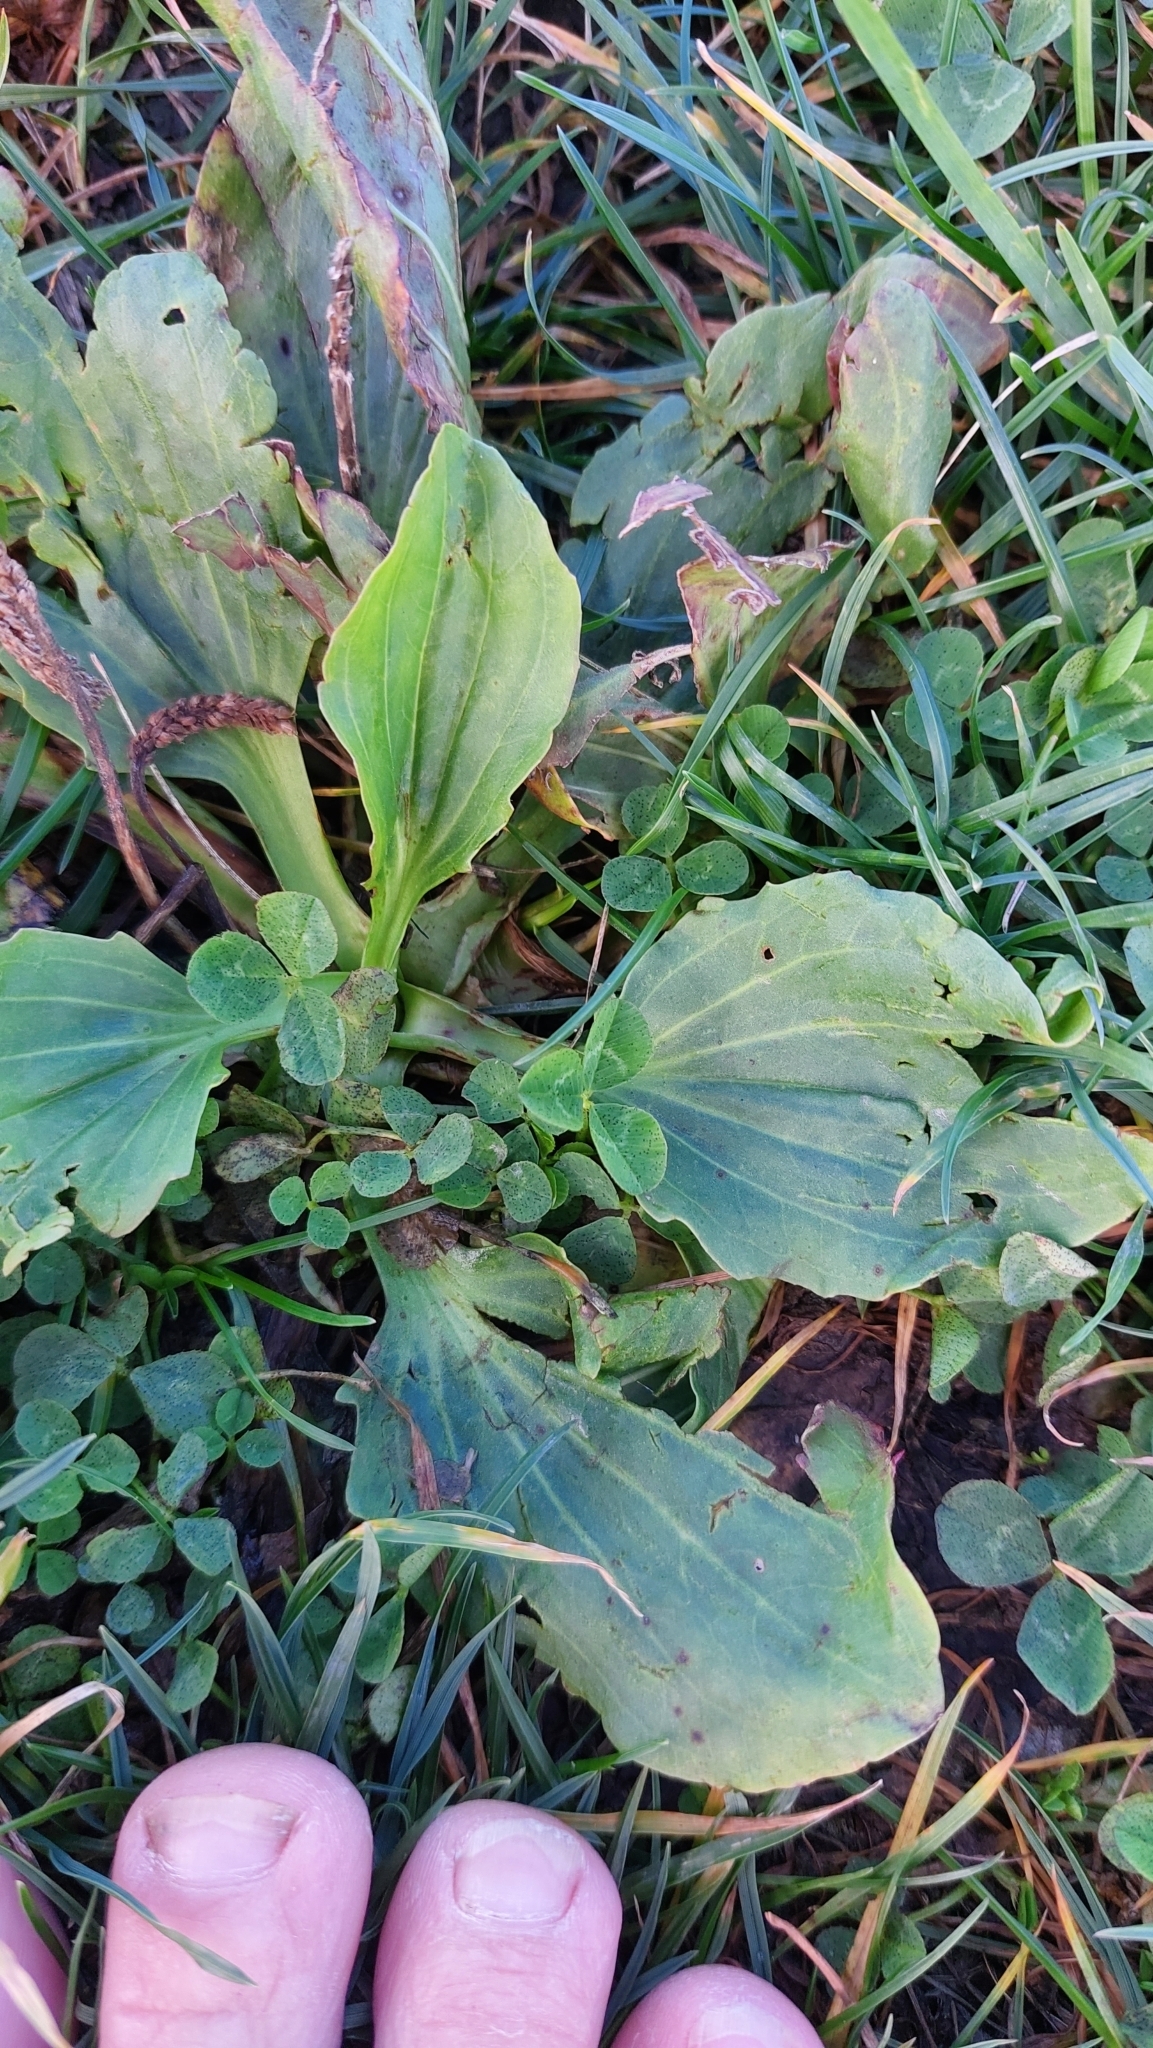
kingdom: Plantae
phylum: Tracheophyta
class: Magnoliopsida
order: Lamiales
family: Plantaginaceae
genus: Plantago
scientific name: Plantago major
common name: Common plantain
